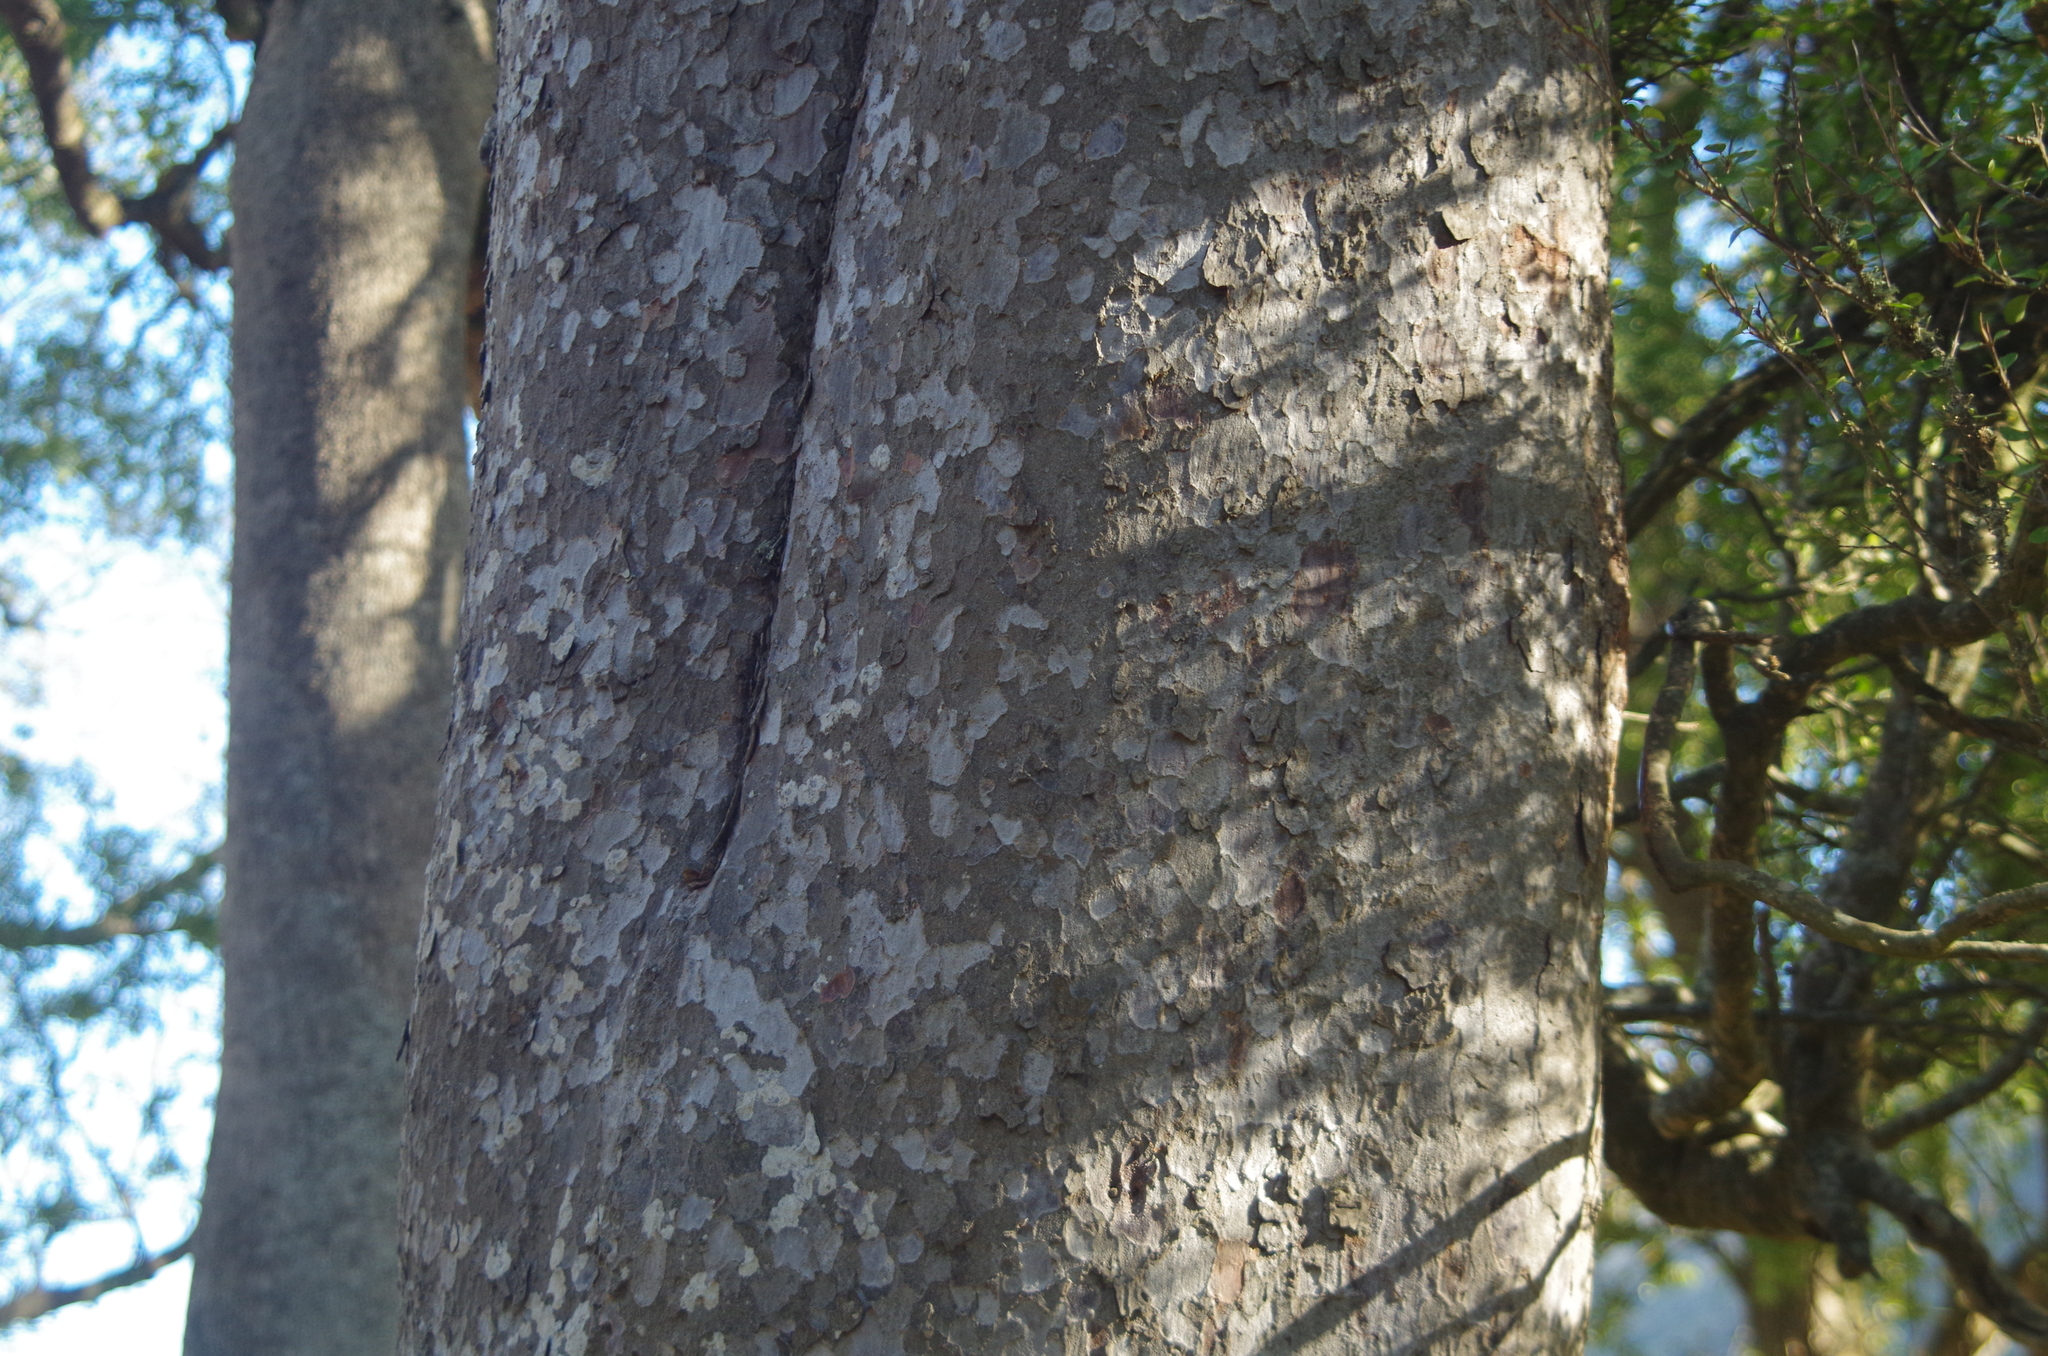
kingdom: Plantae
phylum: Tracheophyta
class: Pinopsida
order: Pinales
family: Podocarpaceae
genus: Prumnopitys
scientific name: Prumnopitys taxifolia
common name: Matai
